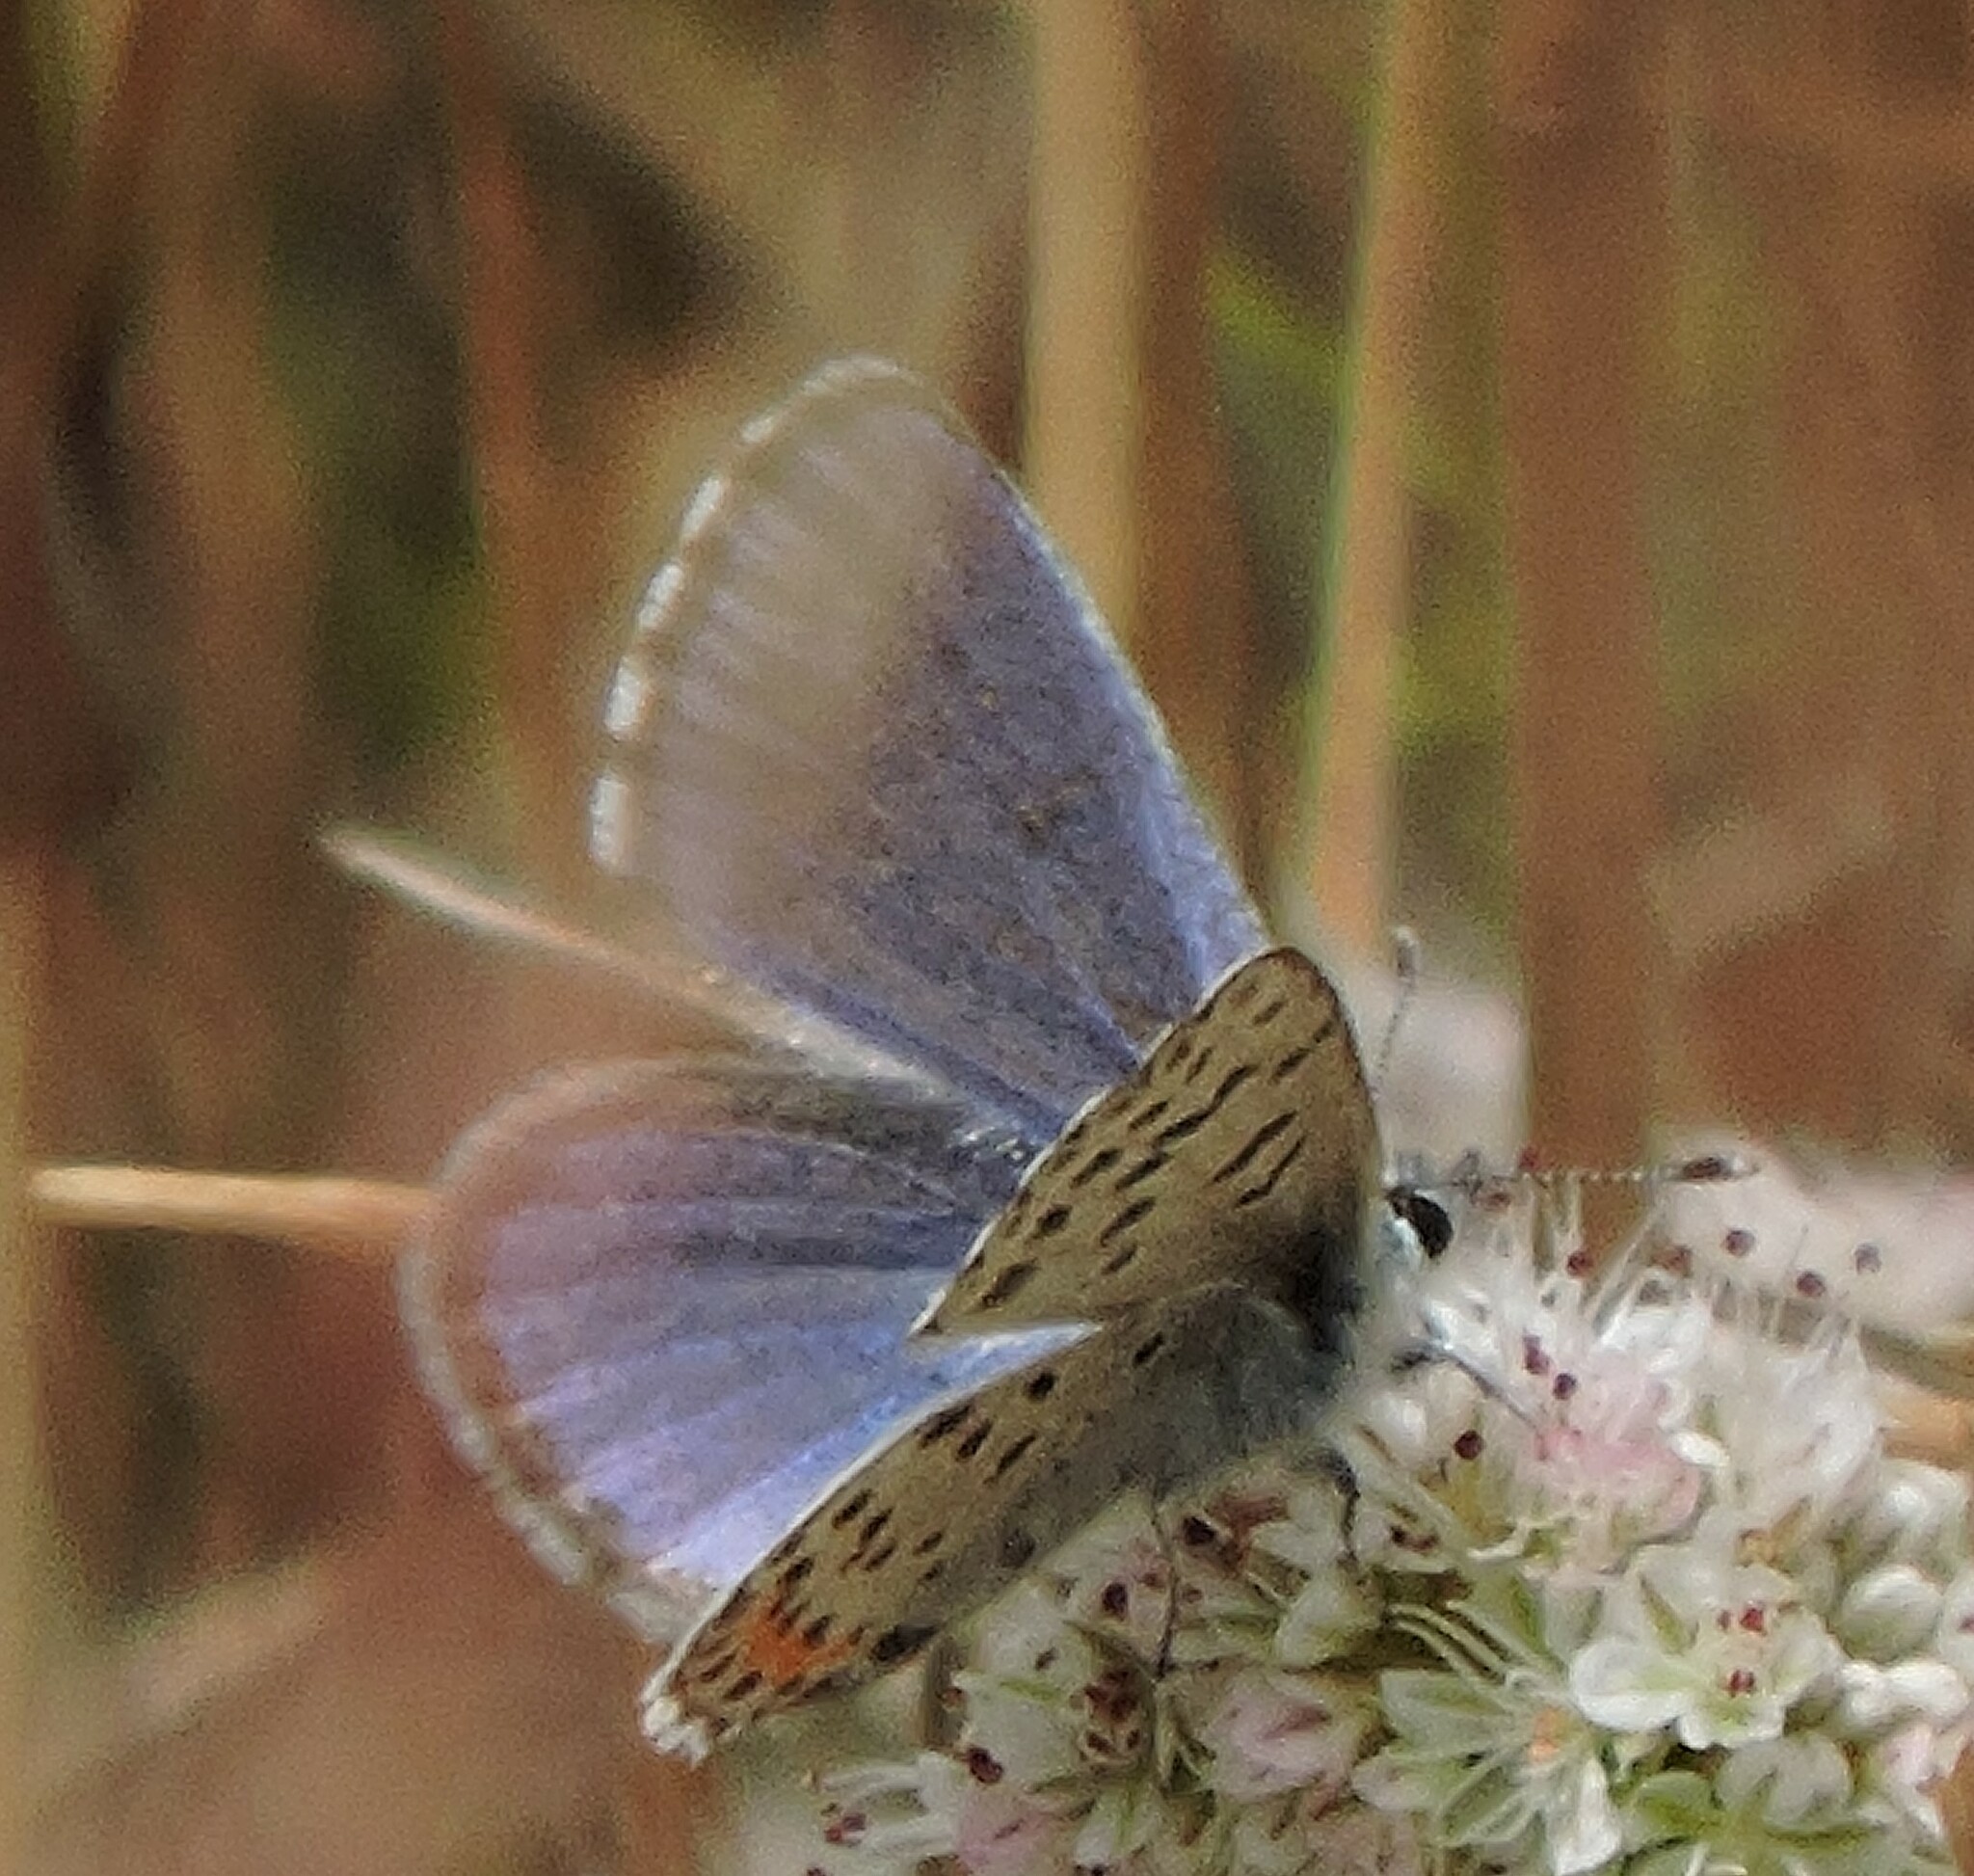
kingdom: Animalia
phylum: Arthropoda
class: Insecta
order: Lepidoptera
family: Lycaenidae
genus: Euphilotes
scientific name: Euphilotes enoptes
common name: Dotted blue
